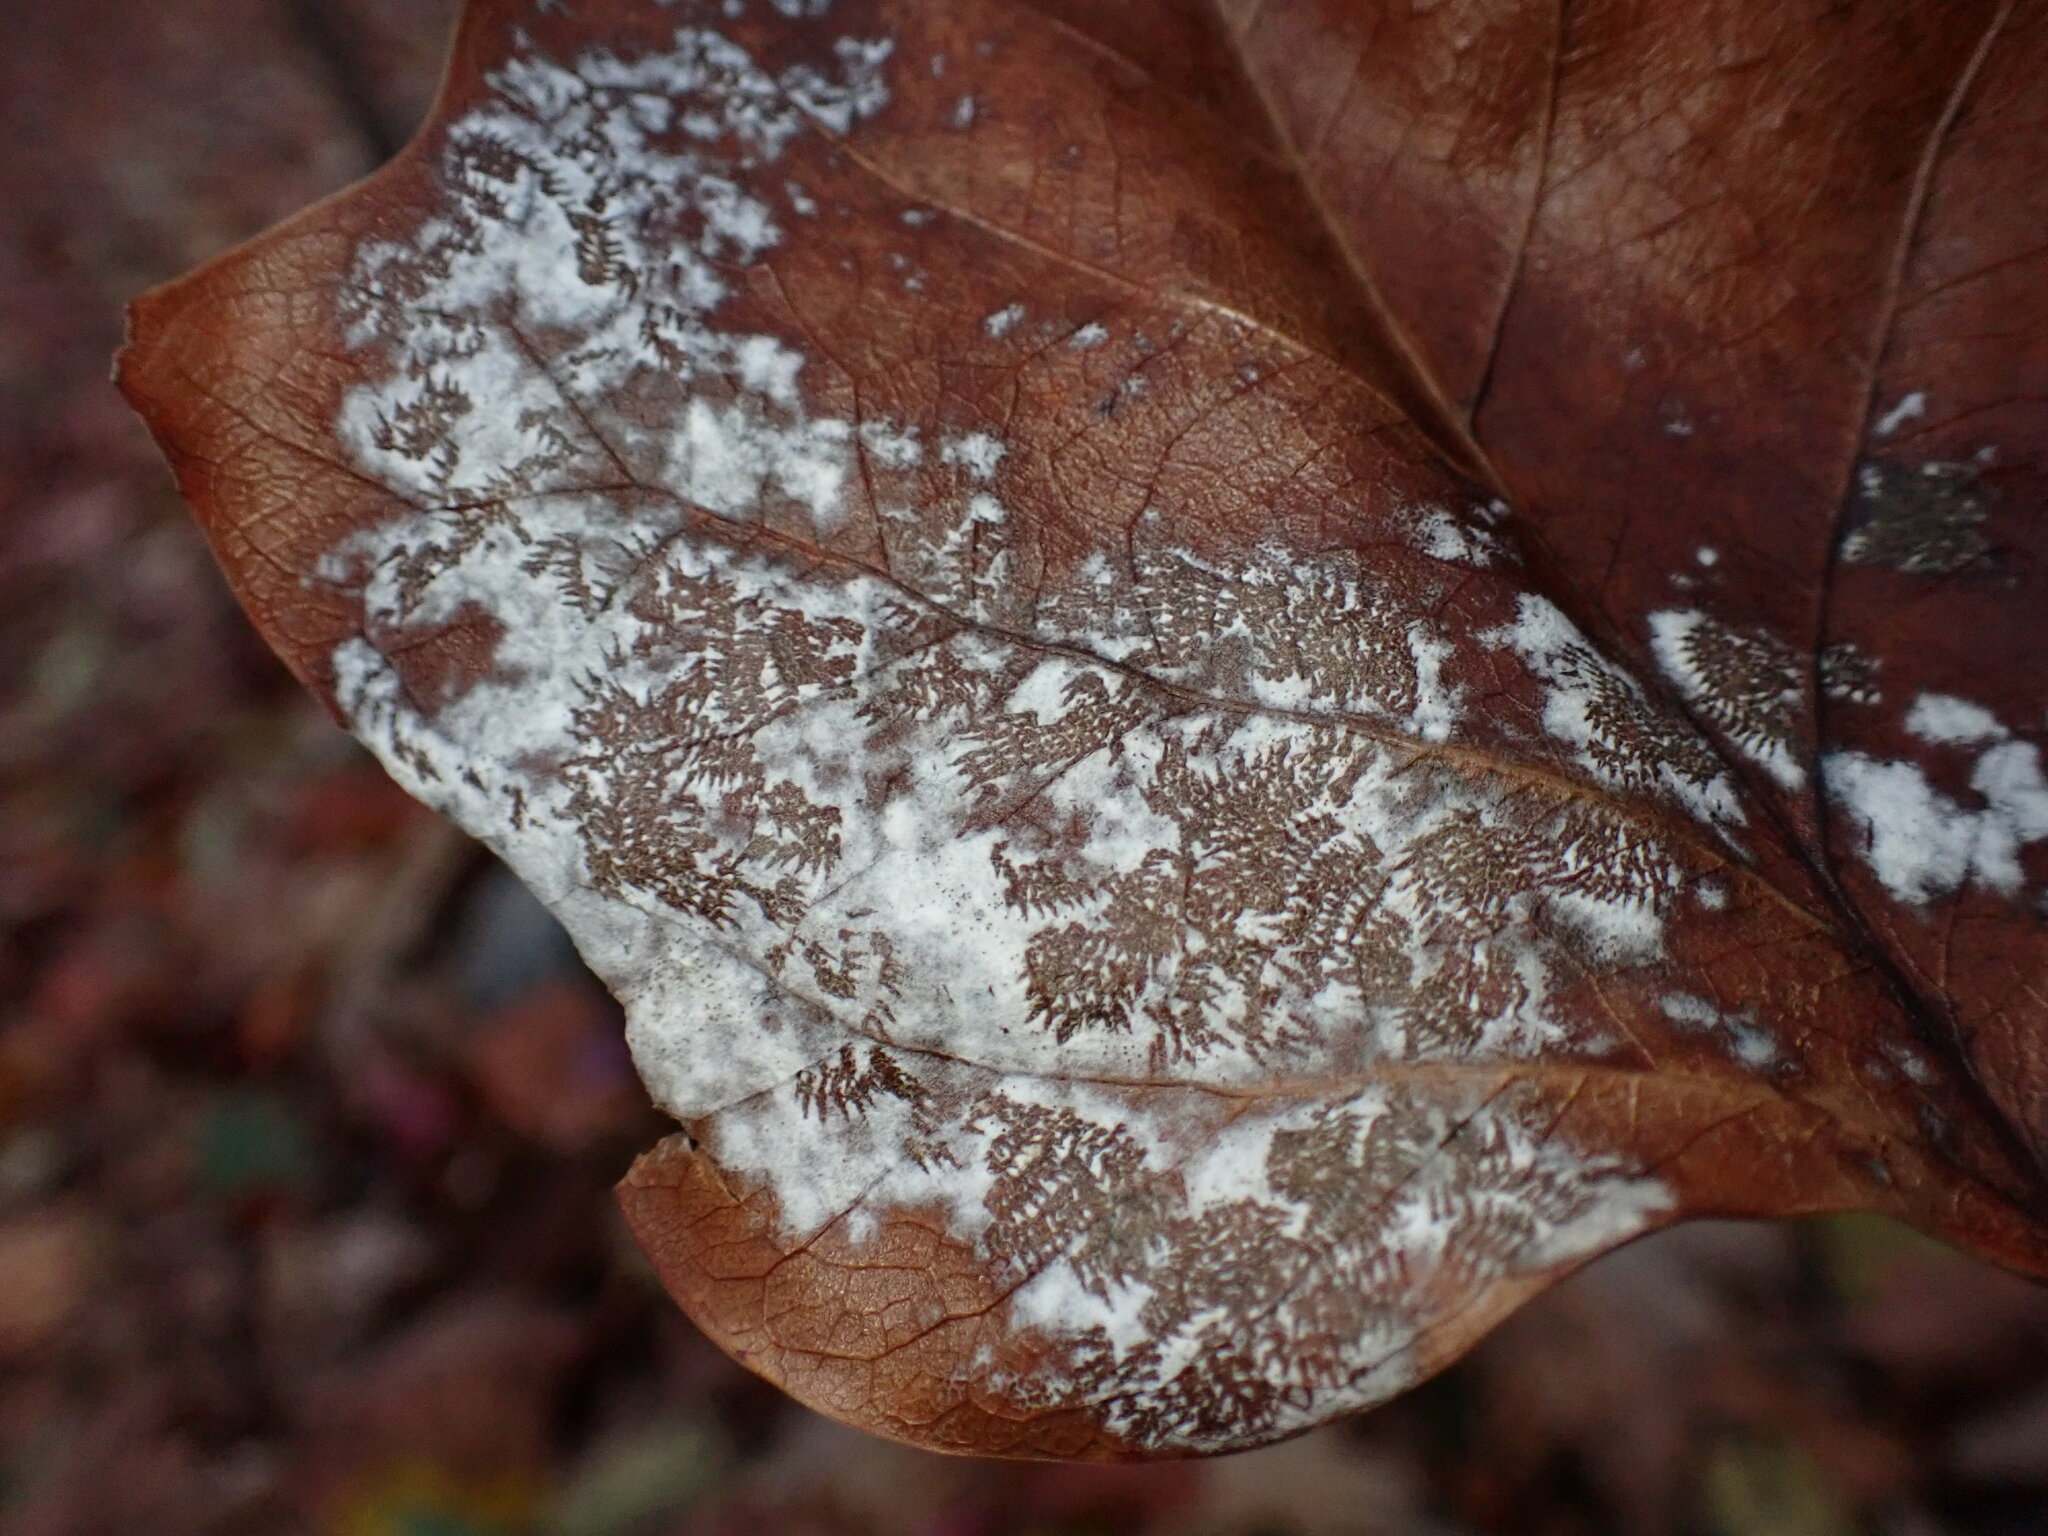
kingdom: Fungi
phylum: Ascomycota
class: Leotiomycetes
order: Helotiales
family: Erysiphaceae
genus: Erysiphe
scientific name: Erysiphe liriodendri
